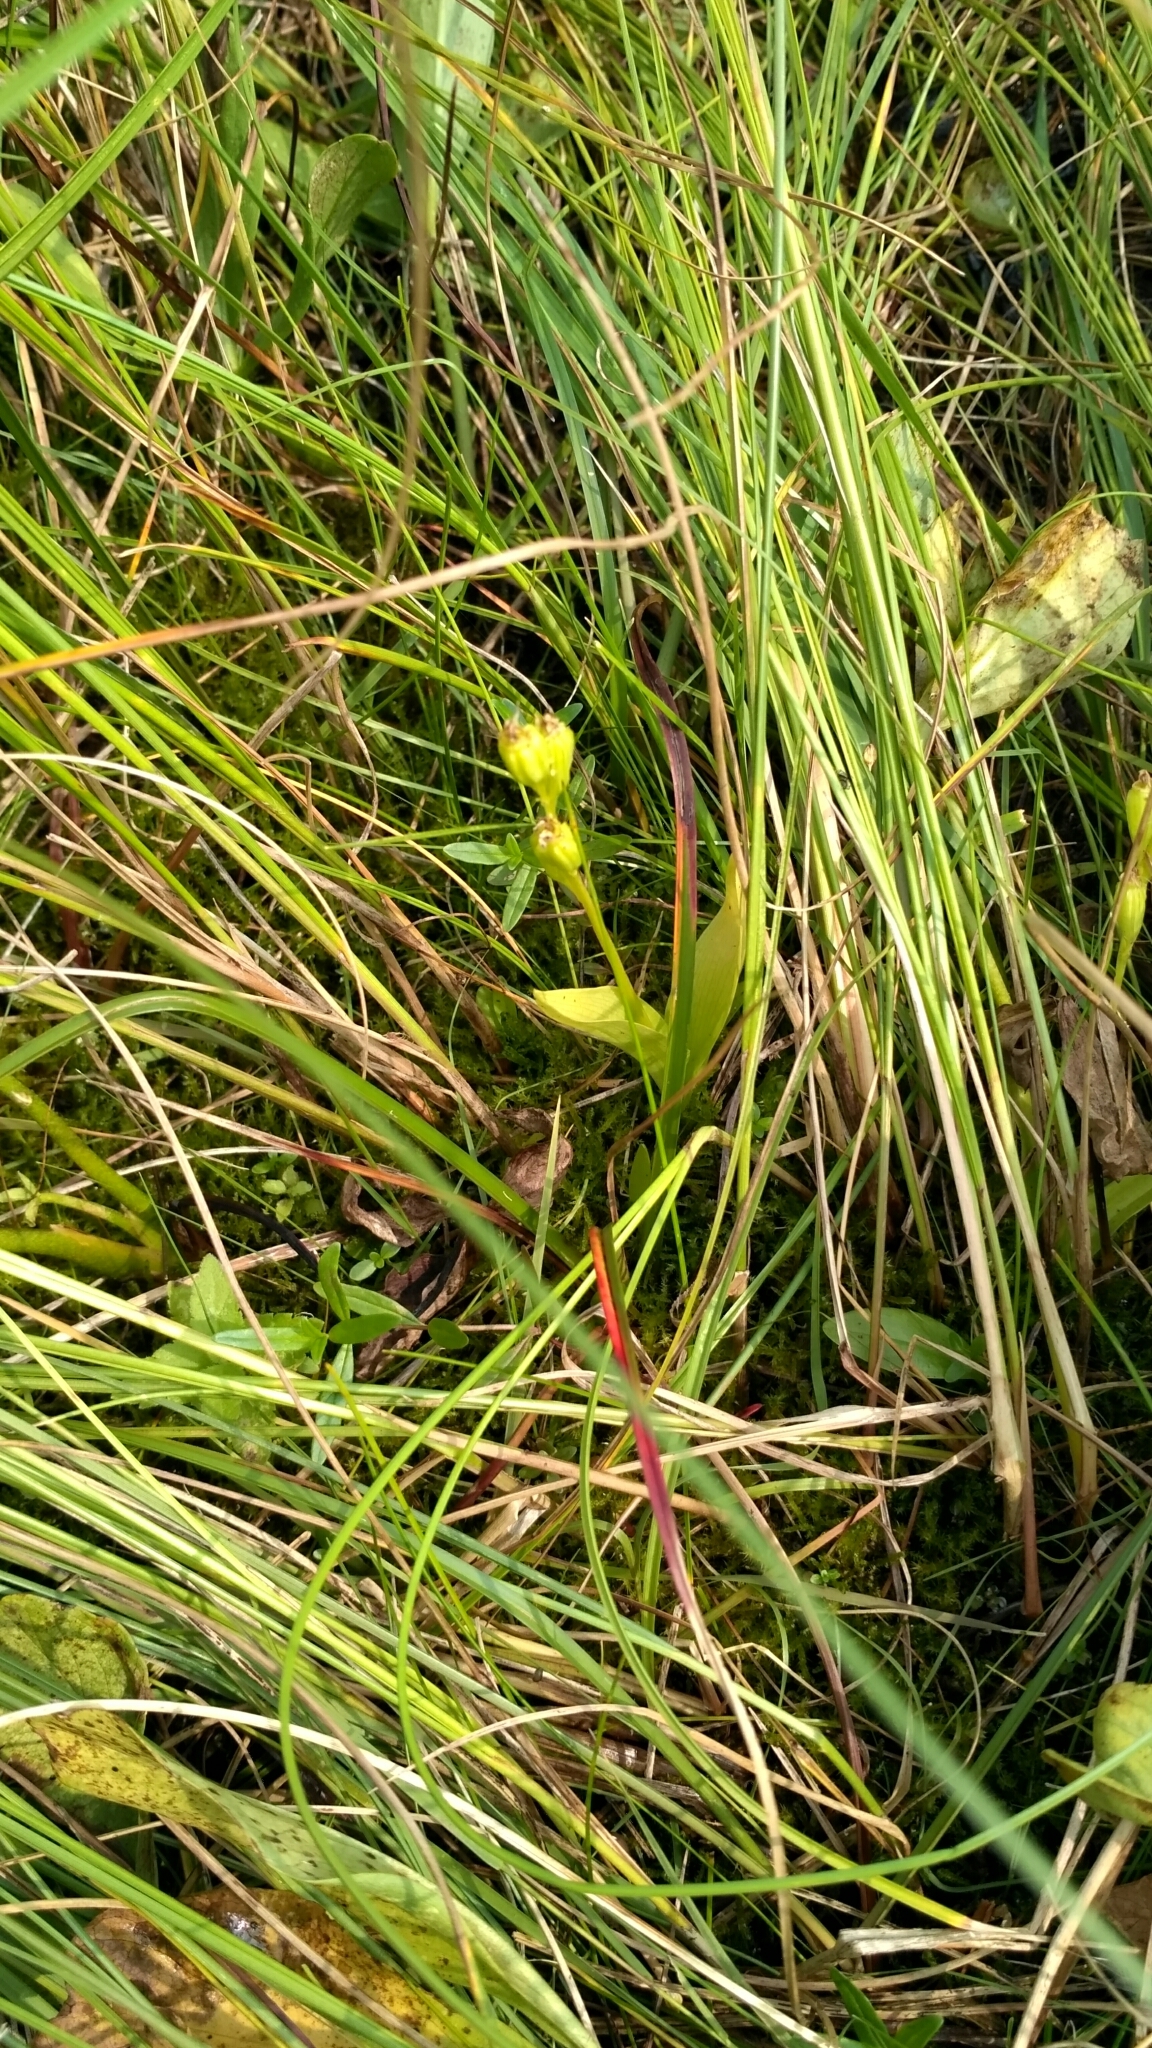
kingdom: Animalia
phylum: Arthropoda
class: Insecta
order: Coleoptera
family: Curculionidae
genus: Liparis
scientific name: Liparis loeselii
